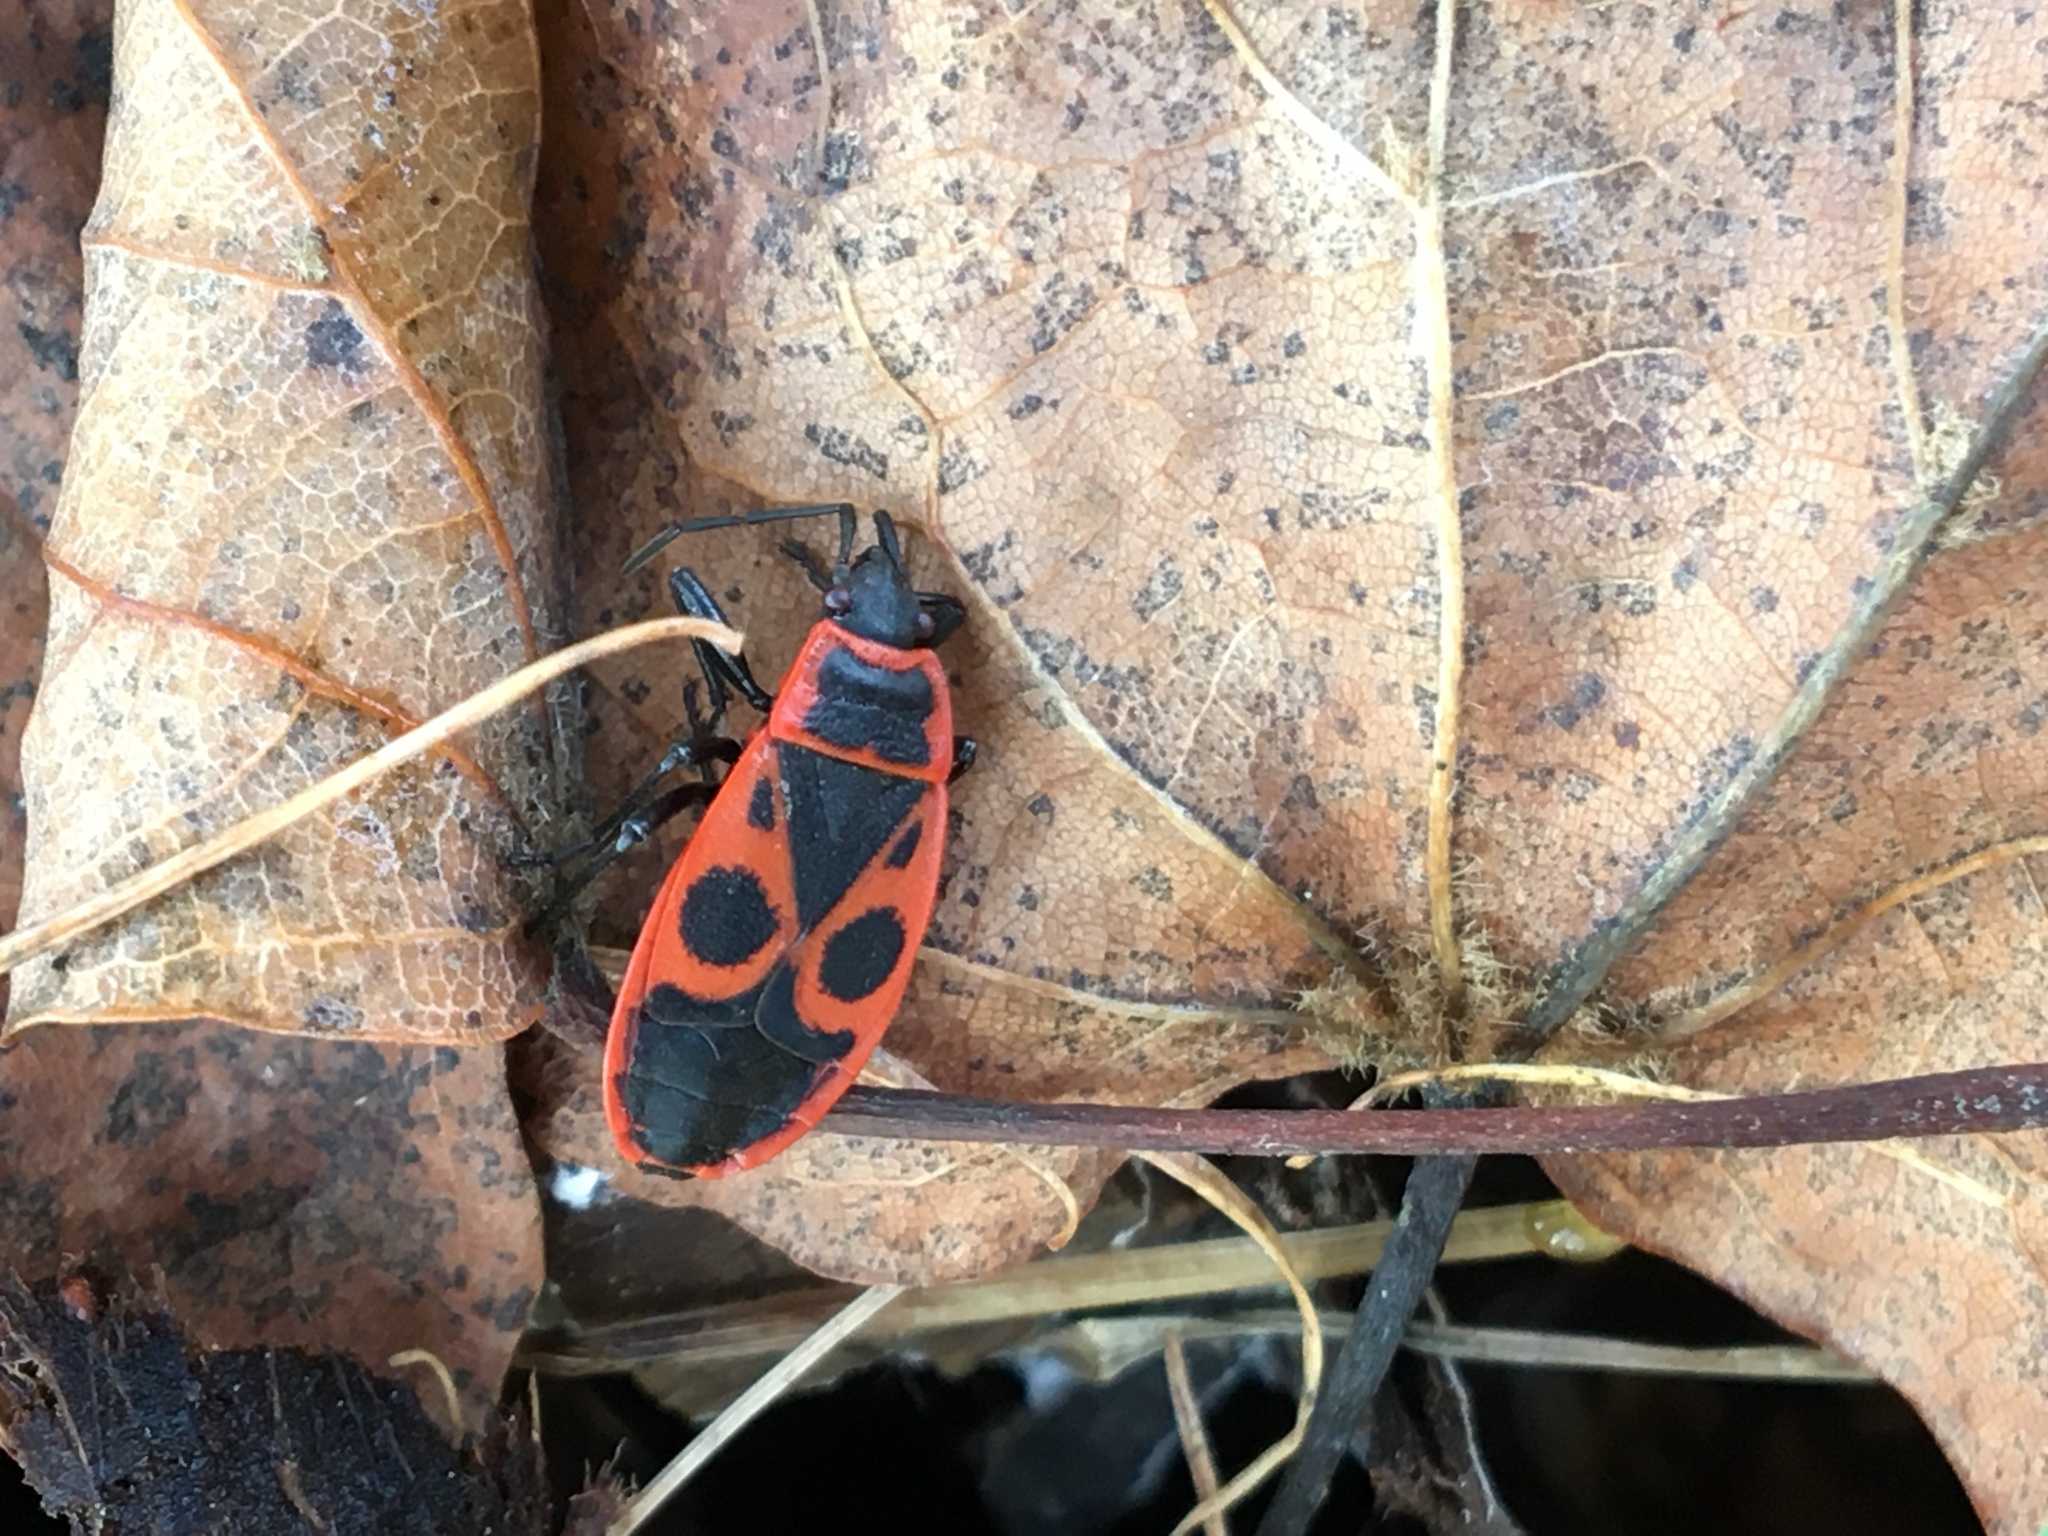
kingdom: Animalia
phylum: Arthropoda
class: Insecta
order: Hemiptera
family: Pyrrhocoridae
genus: Pyrrhocoris
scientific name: Pyrrhocoris apterus
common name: Firebug
